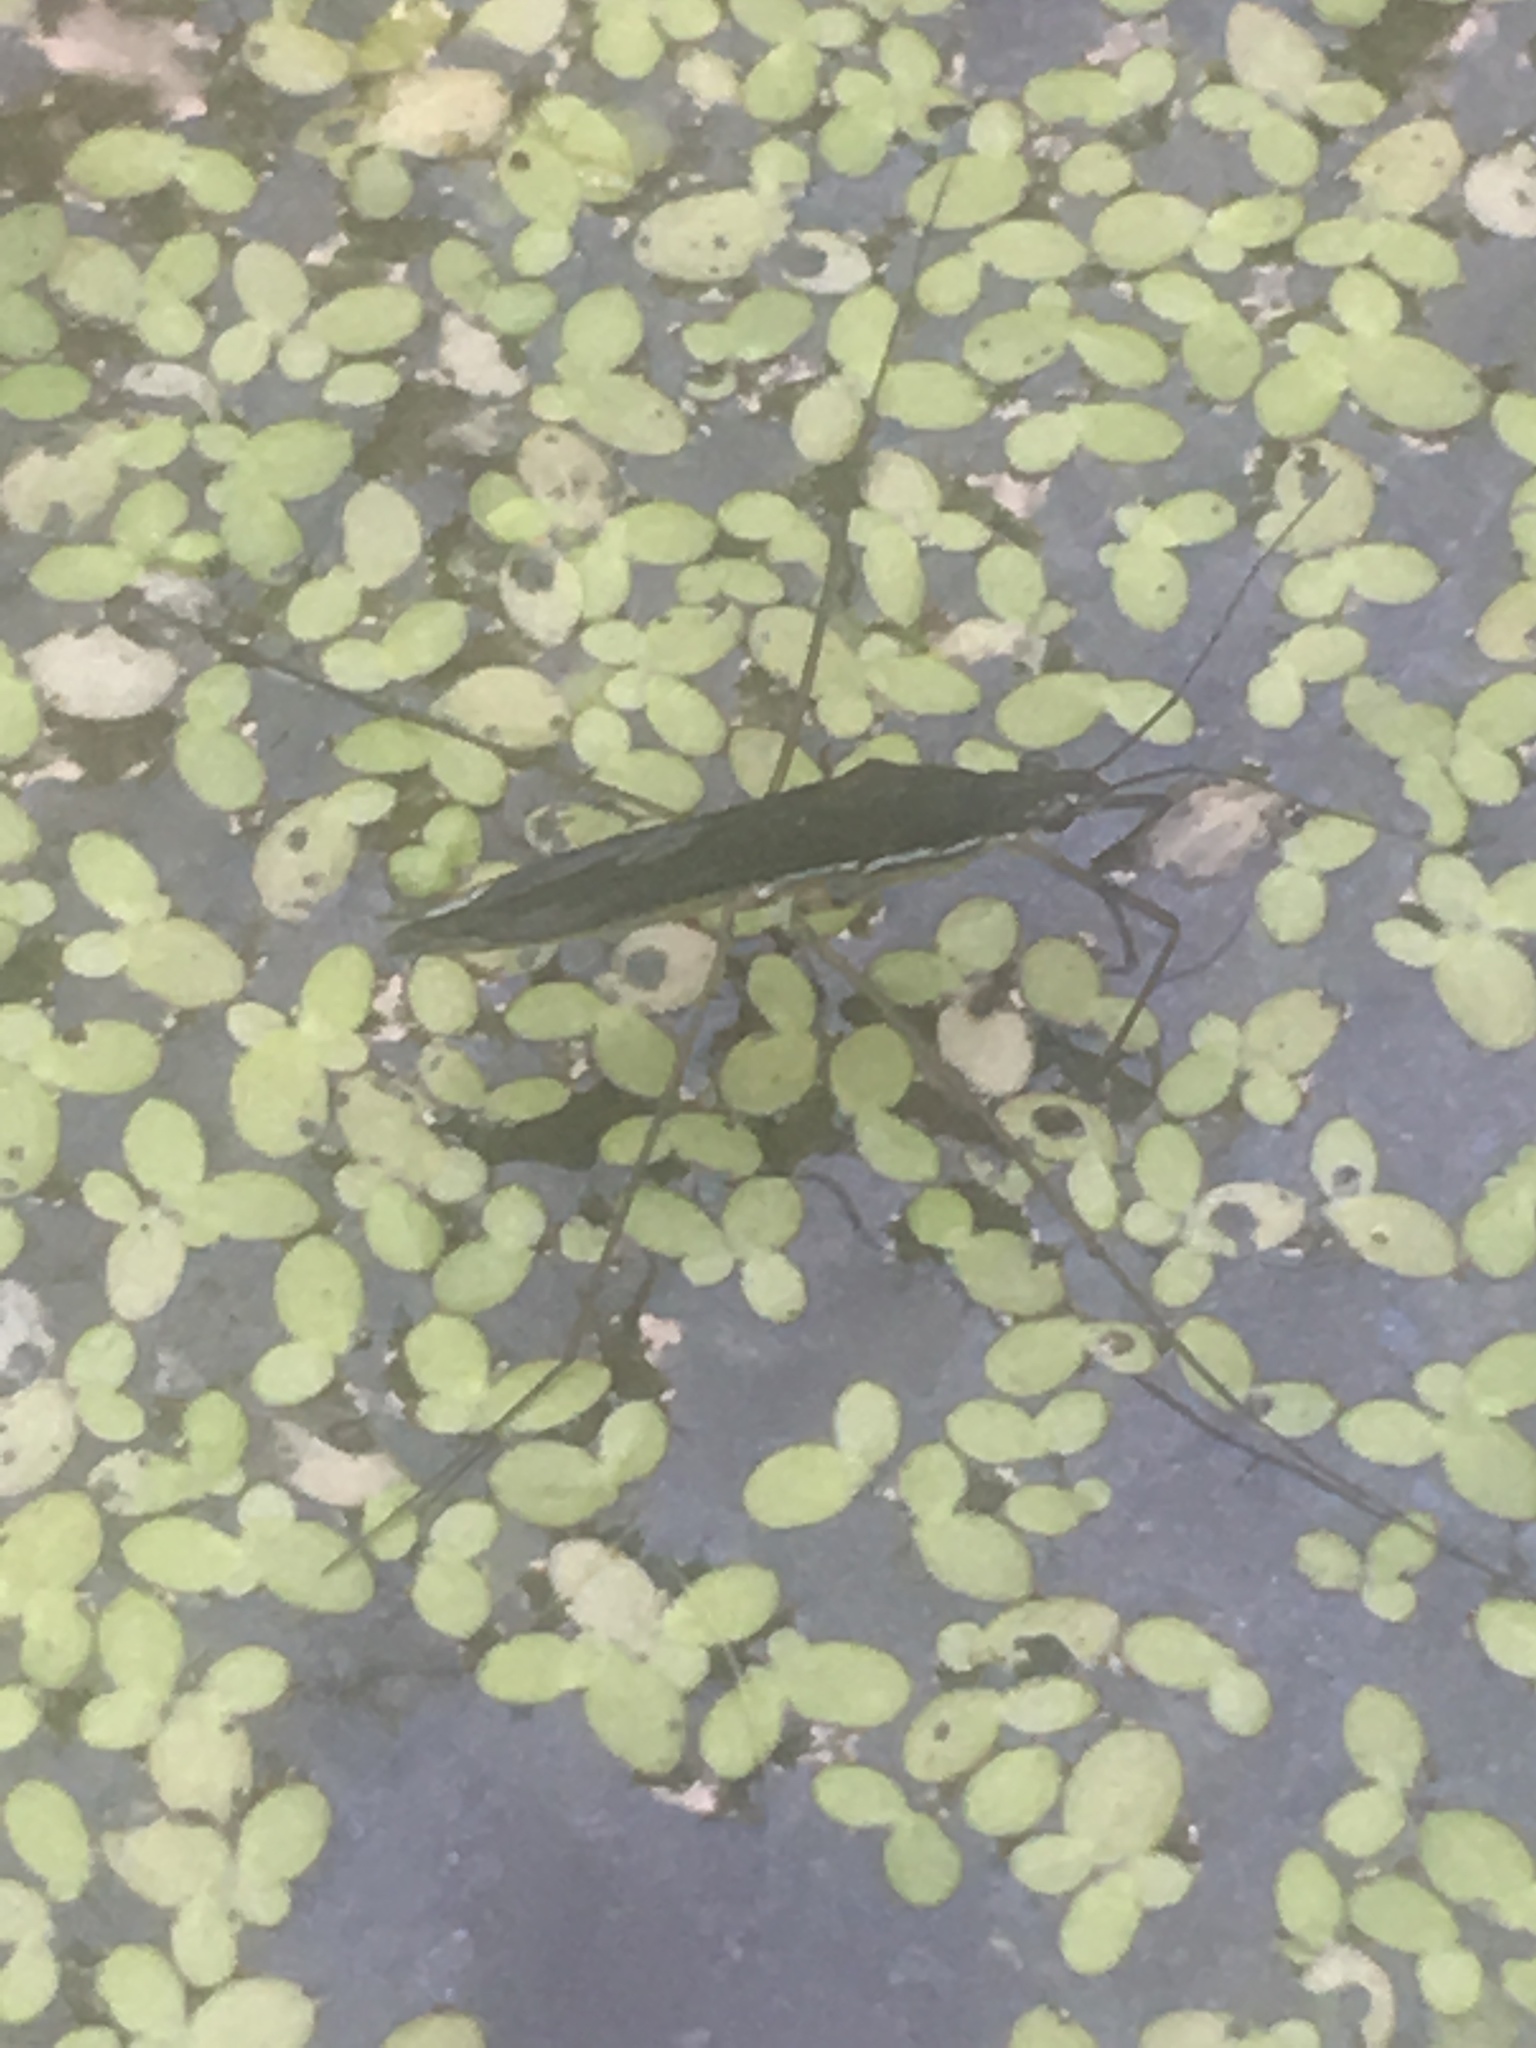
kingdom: Animalia
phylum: Arthropoda
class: Insecta
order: Hemiptera
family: Gerridae
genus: Limnoporus
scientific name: Limnoporus canaliculatus
